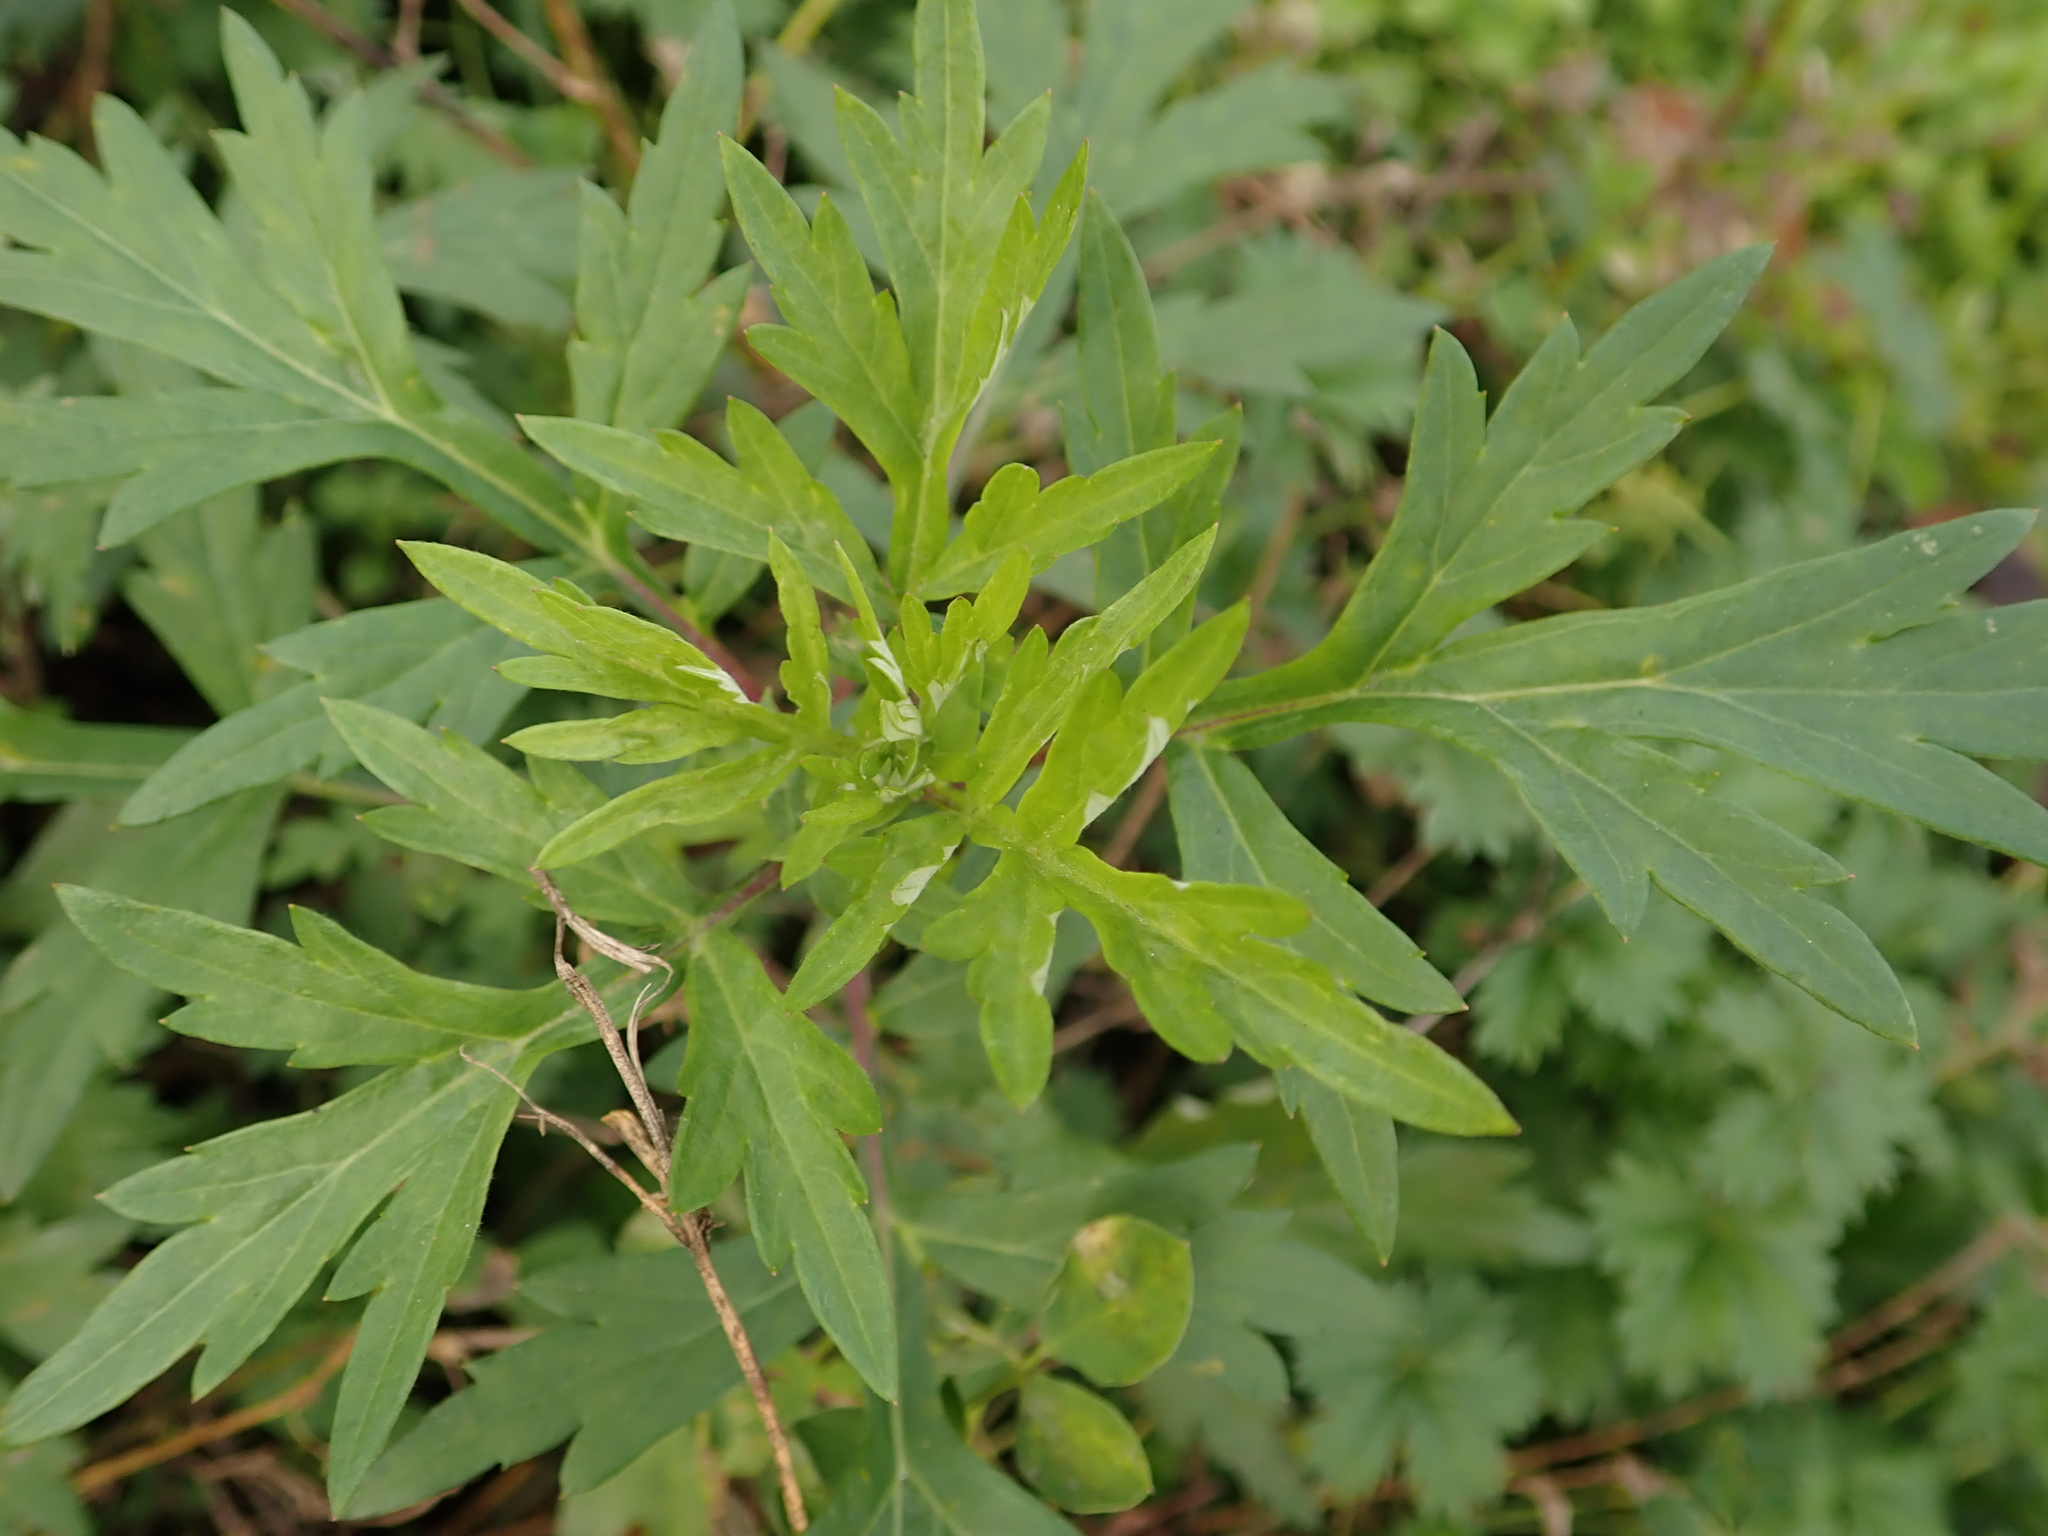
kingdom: Plantae
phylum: Tracheophyta
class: Magnoliopsida
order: Asterales
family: Asteraceae
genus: Artemisia
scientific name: Artemisia vulgaris
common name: Mugwort
